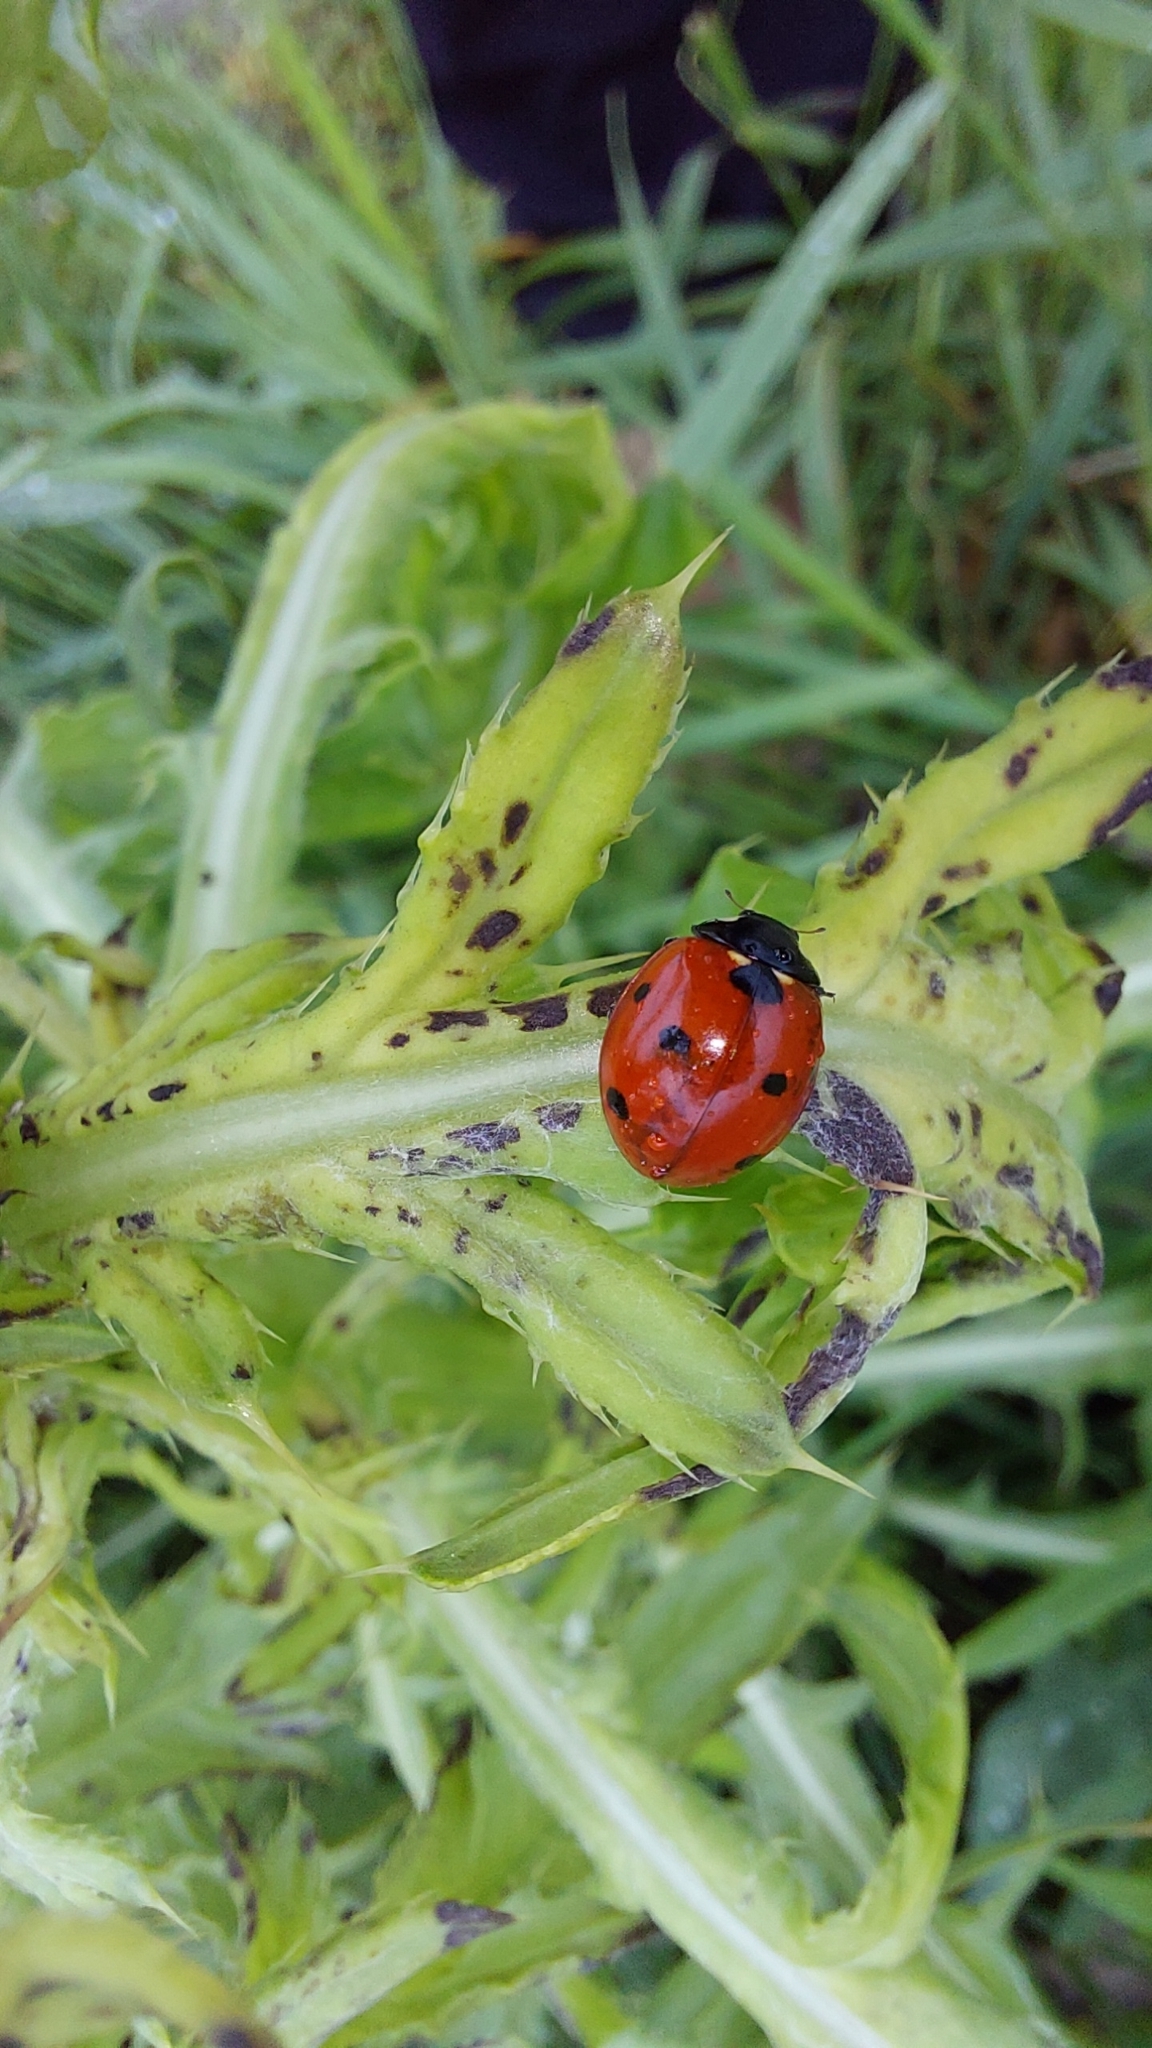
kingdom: Animalia
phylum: Arthropoda
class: Insecta
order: Coleoptera
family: Coccinellidae
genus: Coccinella
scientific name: Coccinella septempunctata
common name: Sevenspotted lady beetle
